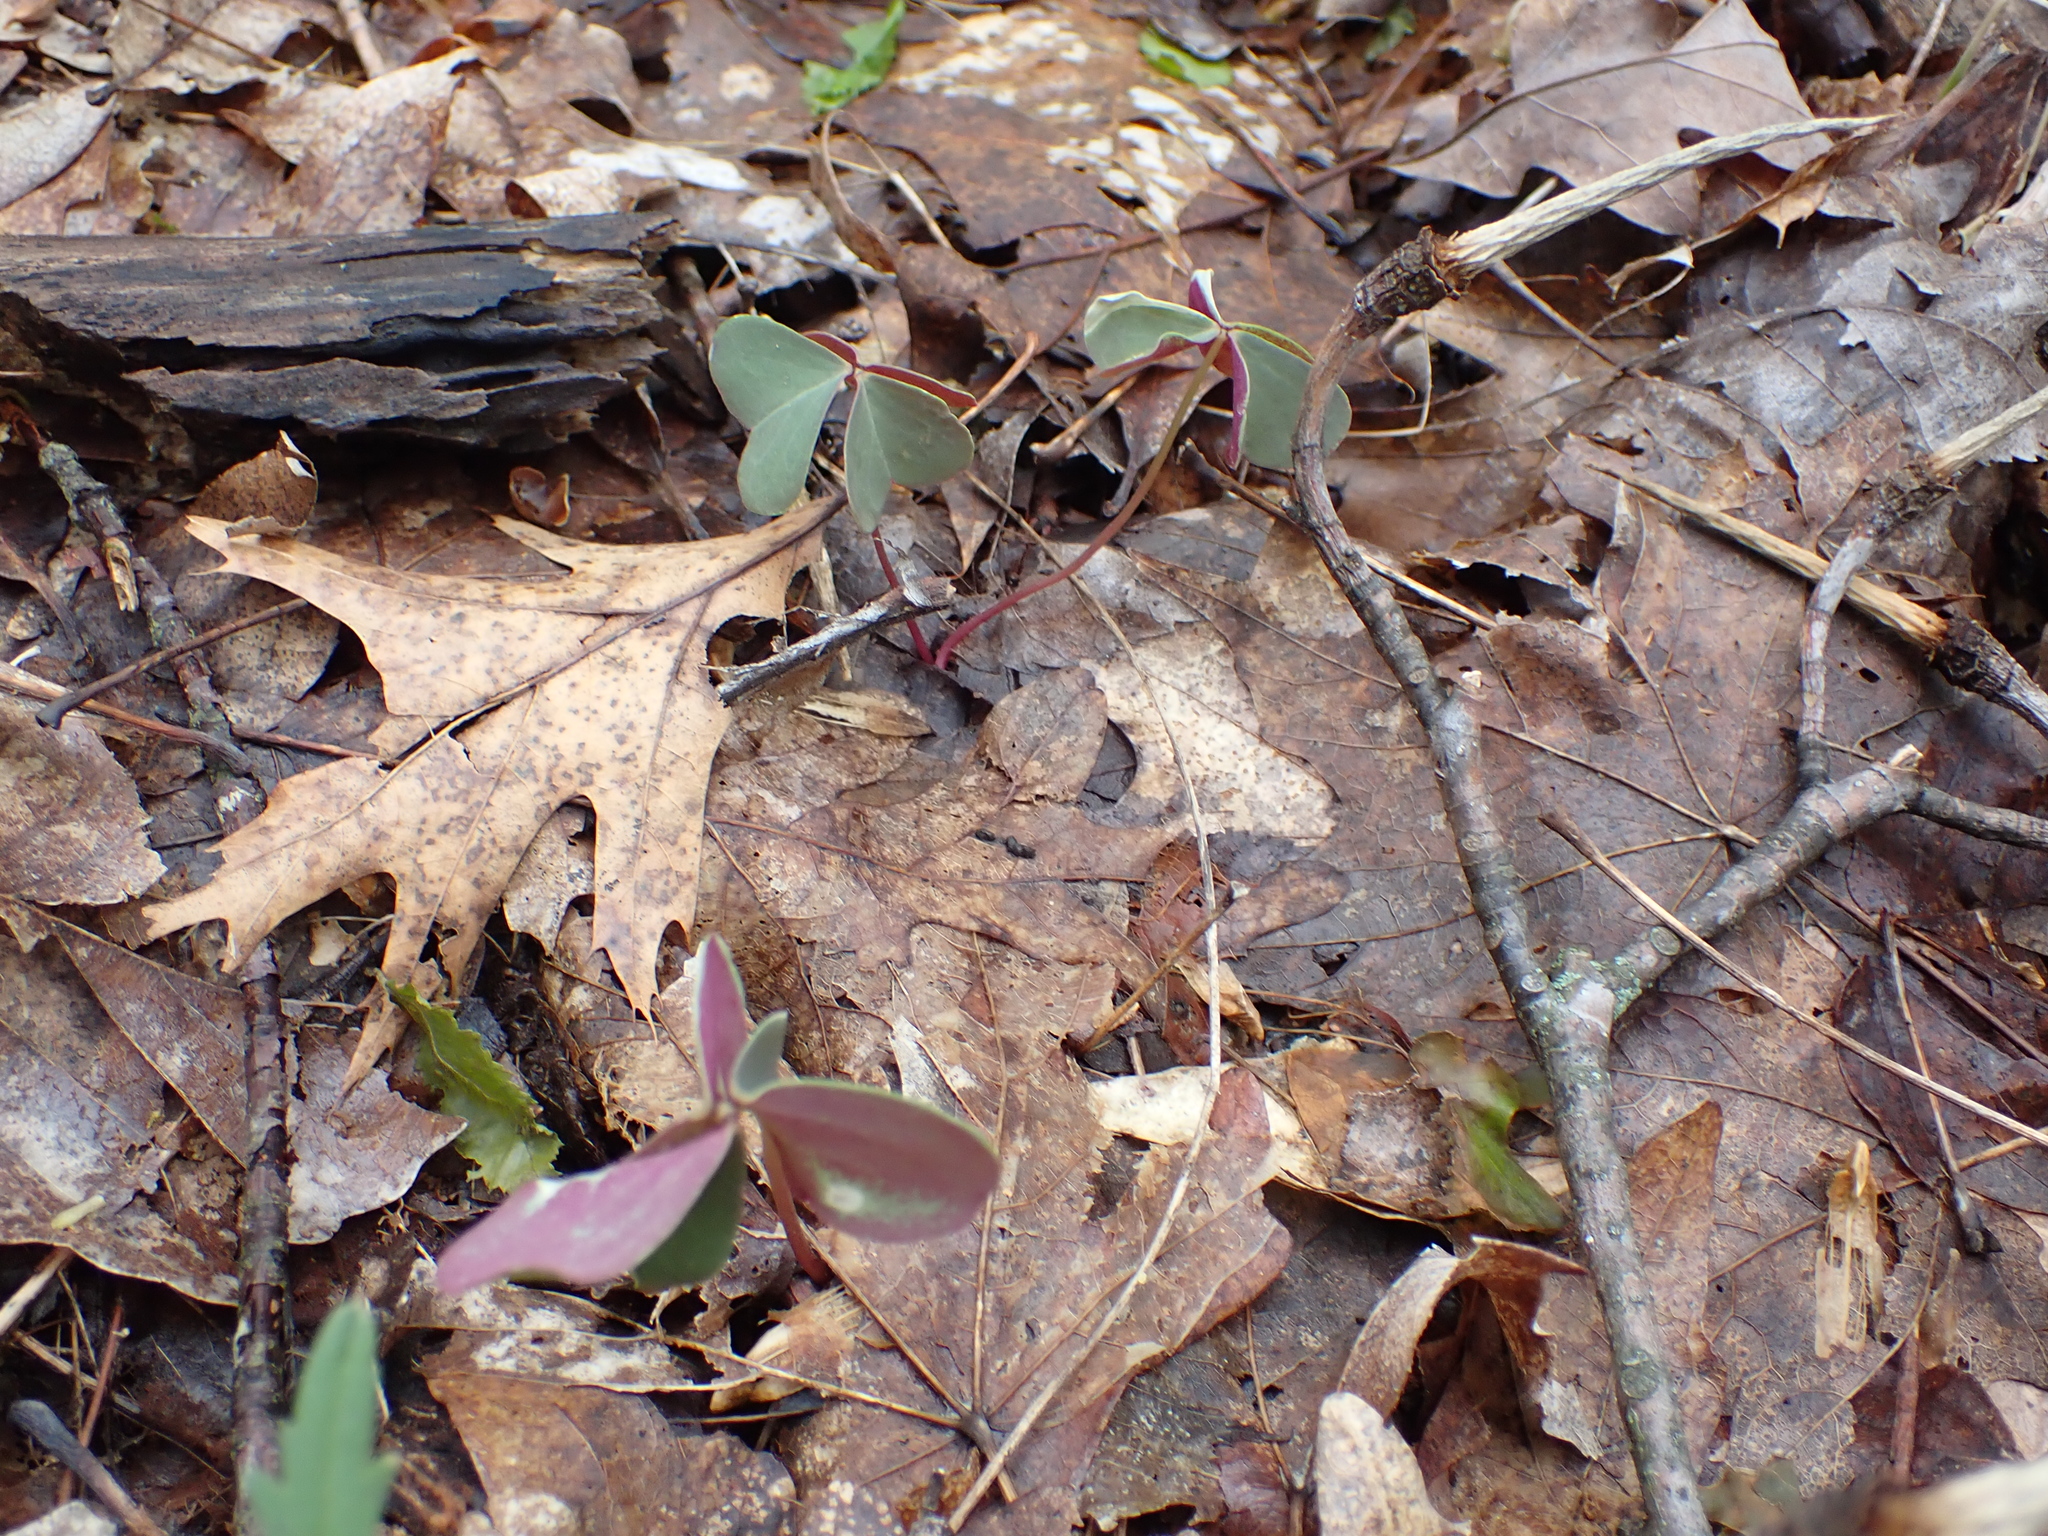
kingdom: Plantae
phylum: Tracheophyta
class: Magnoliopsida
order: Oxalidales
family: Oxalidaceae
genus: Oxalis
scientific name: Oxalis violacea
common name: Violet wood-sorrel
